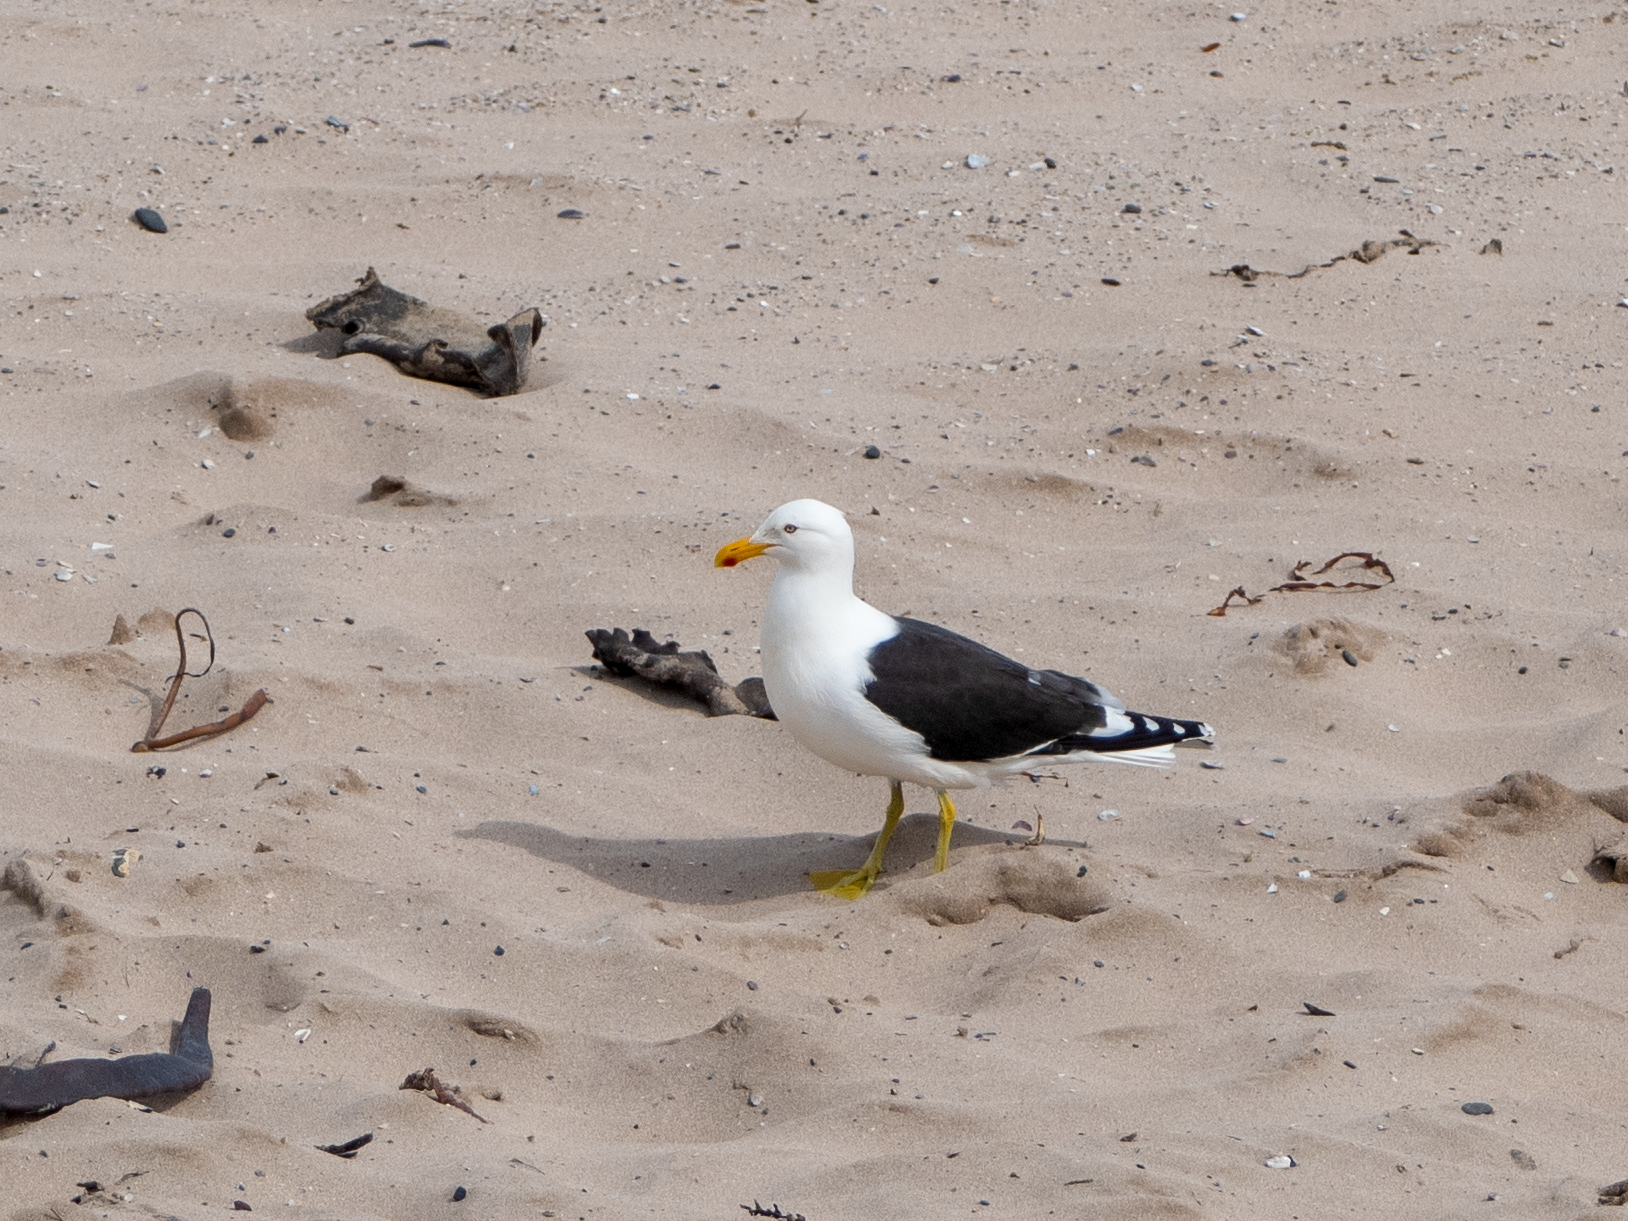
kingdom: Animalia
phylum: Chordata
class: Aves
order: Charadriiformes
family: Laridae
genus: Larus
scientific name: Larus dominicanus
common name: Kelp gull
